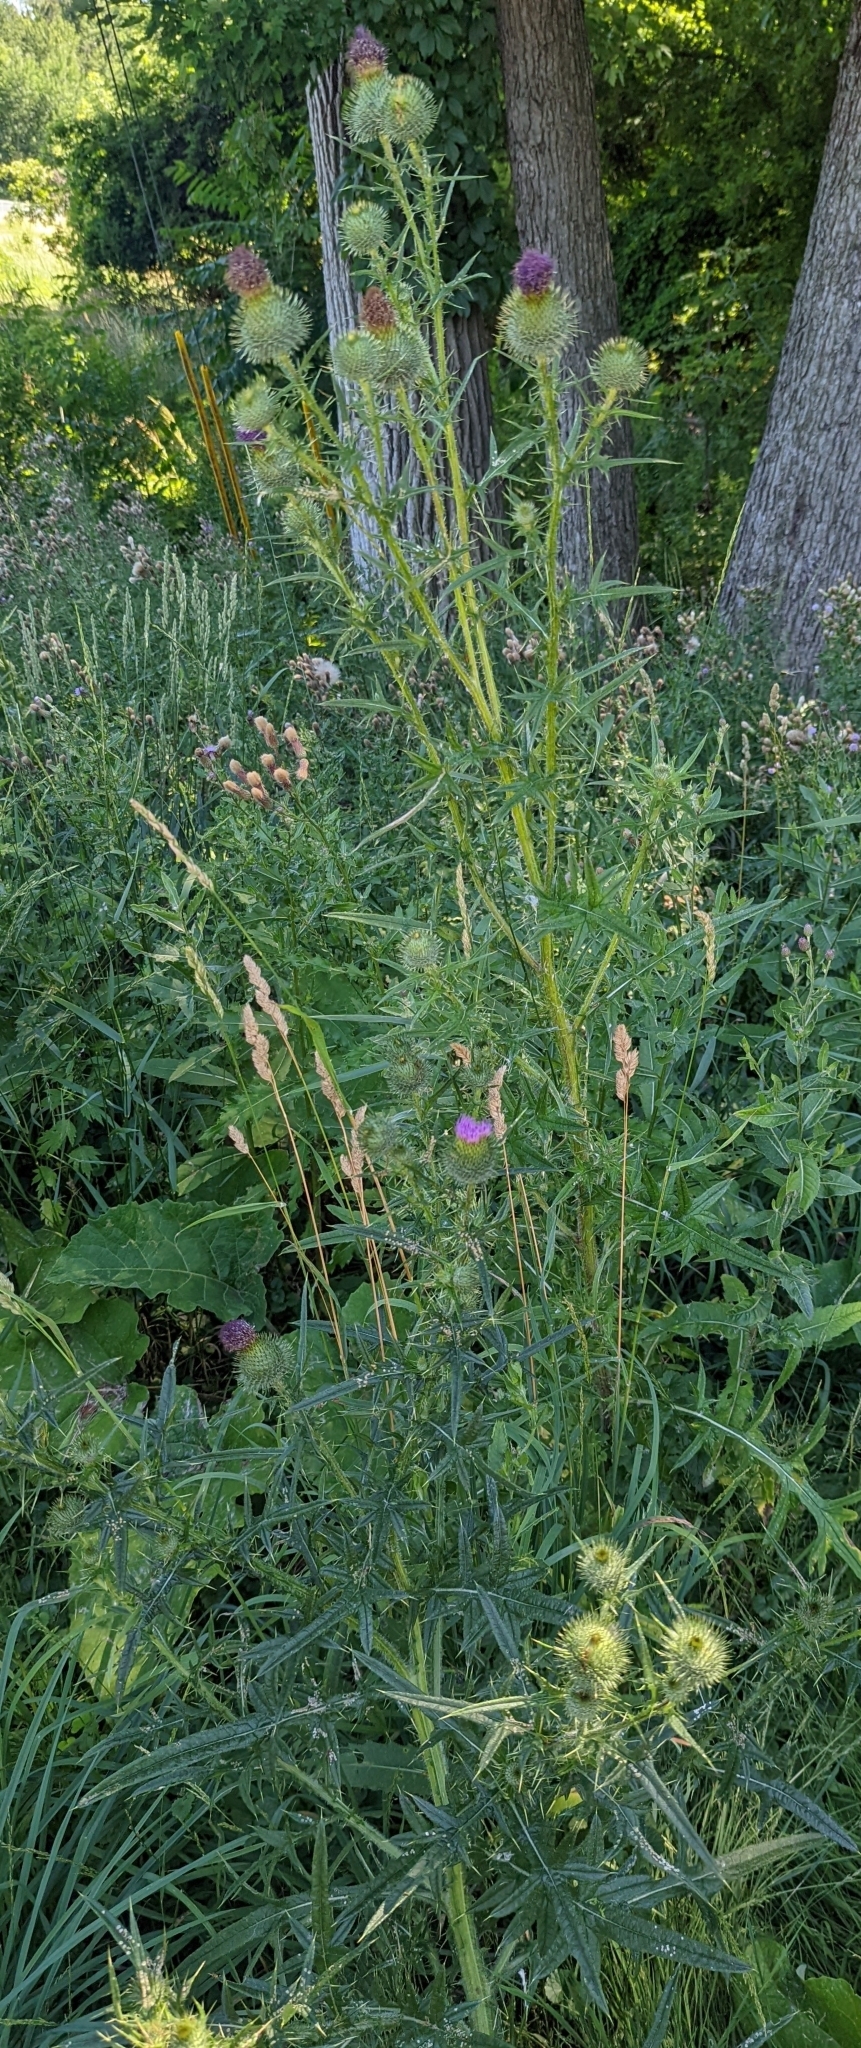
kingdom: Plantae
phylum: Tracheophyta
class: Magnoliopsida
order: Asterales
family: Asteraceae
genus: Cirsium
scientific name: Cirsium vulgare
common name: Bull thistle
